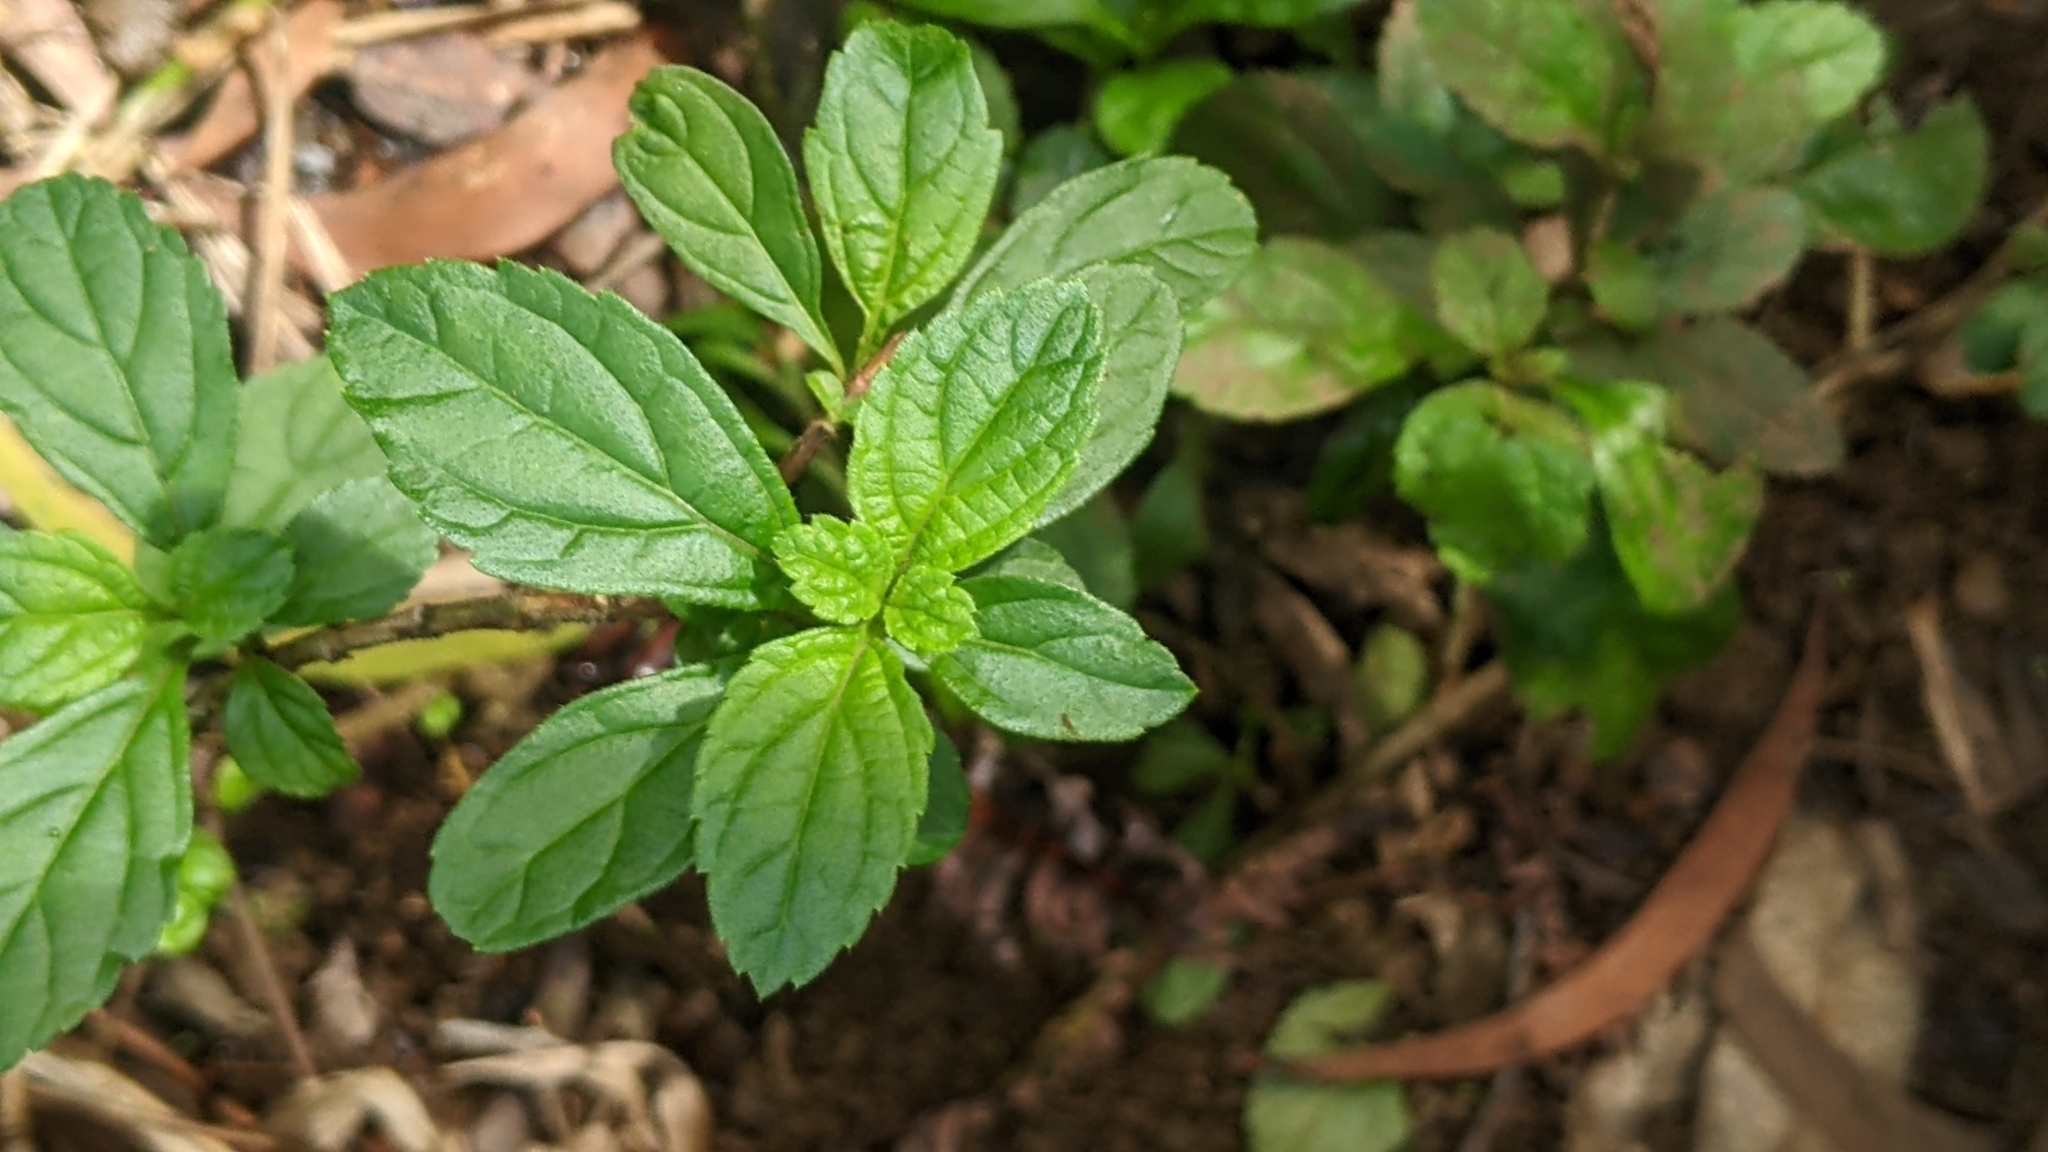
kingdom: Plantae
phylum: Tracheophyta
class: Magnoliopsida
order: Asterales
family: Asteraceae
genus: Sphagneticola
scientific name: Sphagneticola trilobata
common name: Bay biscayne creeping-oxeye
